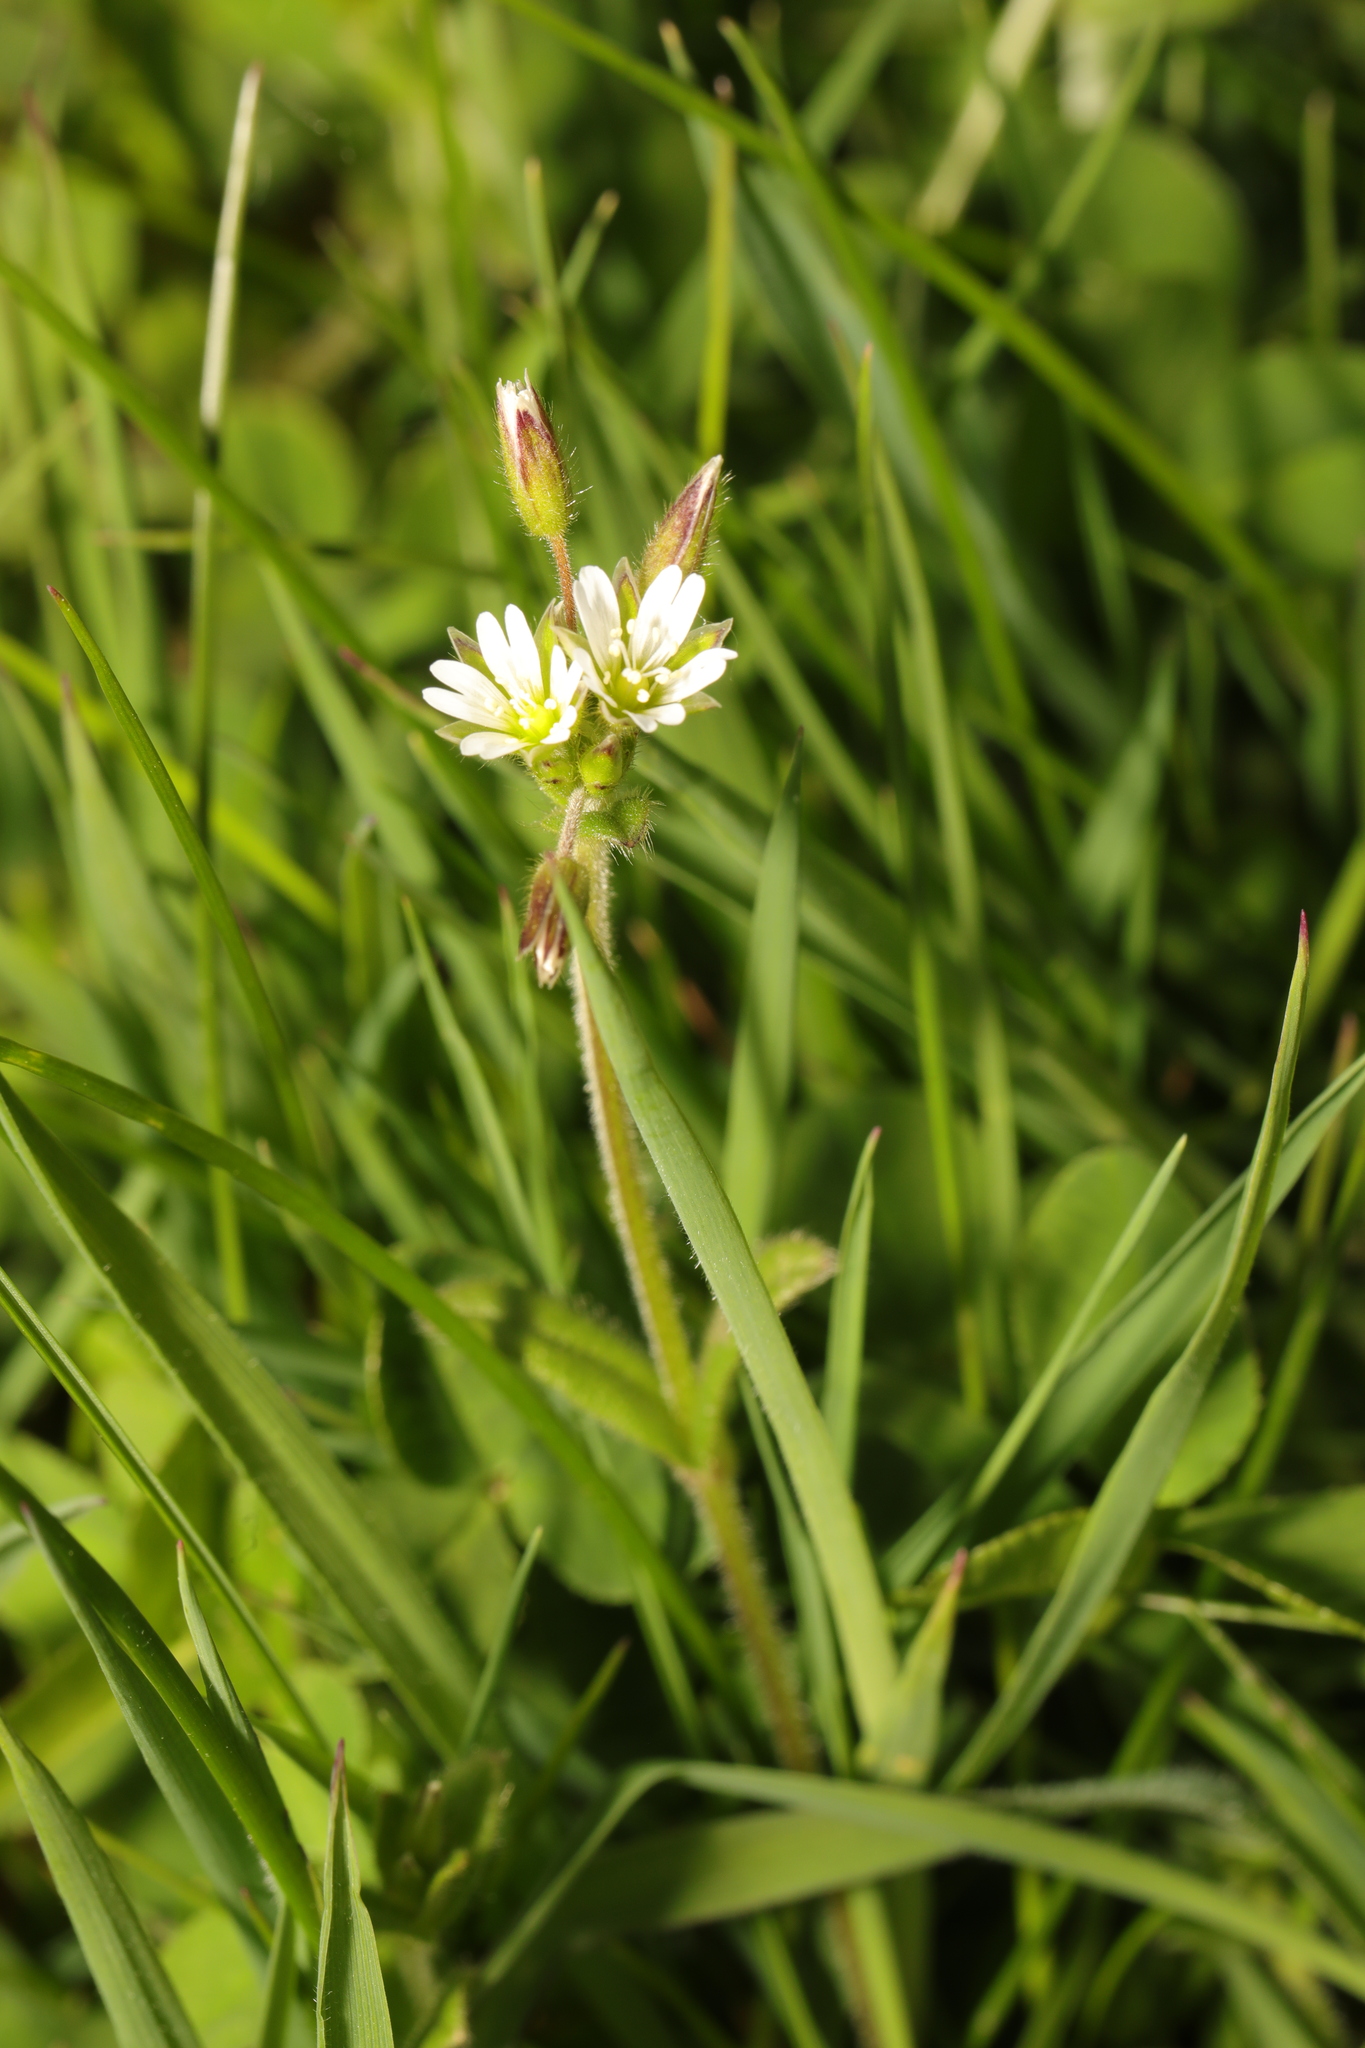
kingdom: Plantae
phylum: Tracheophyta
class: Magnoliopsida
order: Caryophyllales
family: Caryophyllaceae
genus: Cerastium
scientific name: Cerastium fontanum
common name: Common mouse-ear
